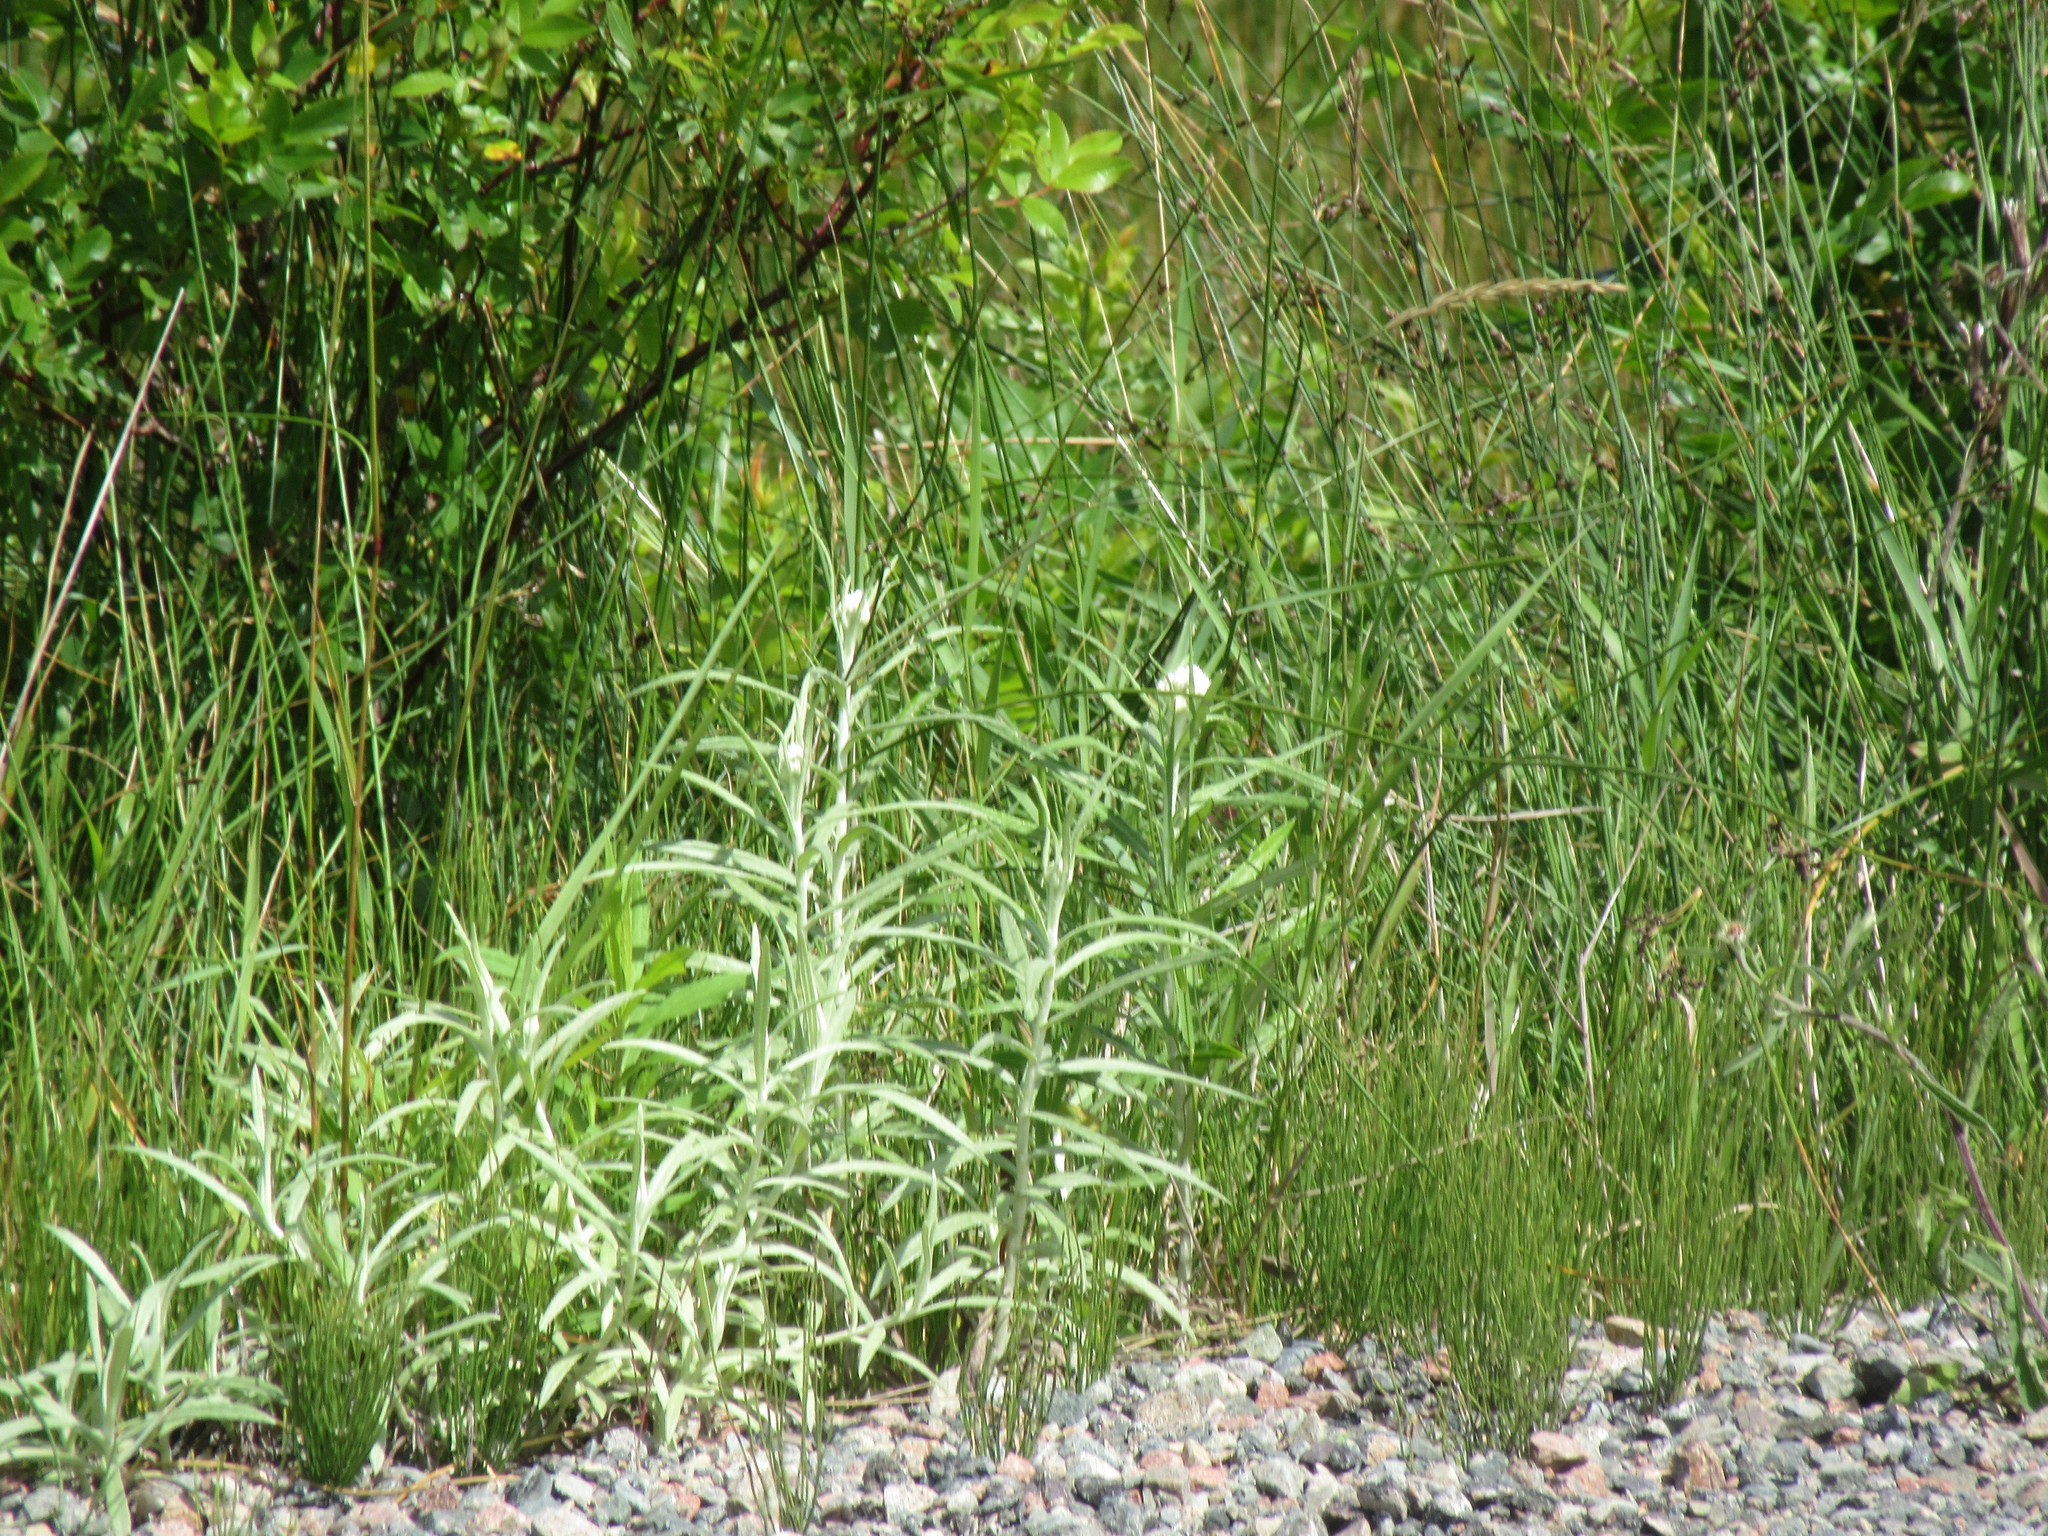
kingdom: Plantae
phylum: Tracheophyta
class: Magnoliopsida
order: Asterales
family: Asteraceae
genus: Anaphalis
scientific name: Anaphalis margaritacea
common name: Pearly everlasting
